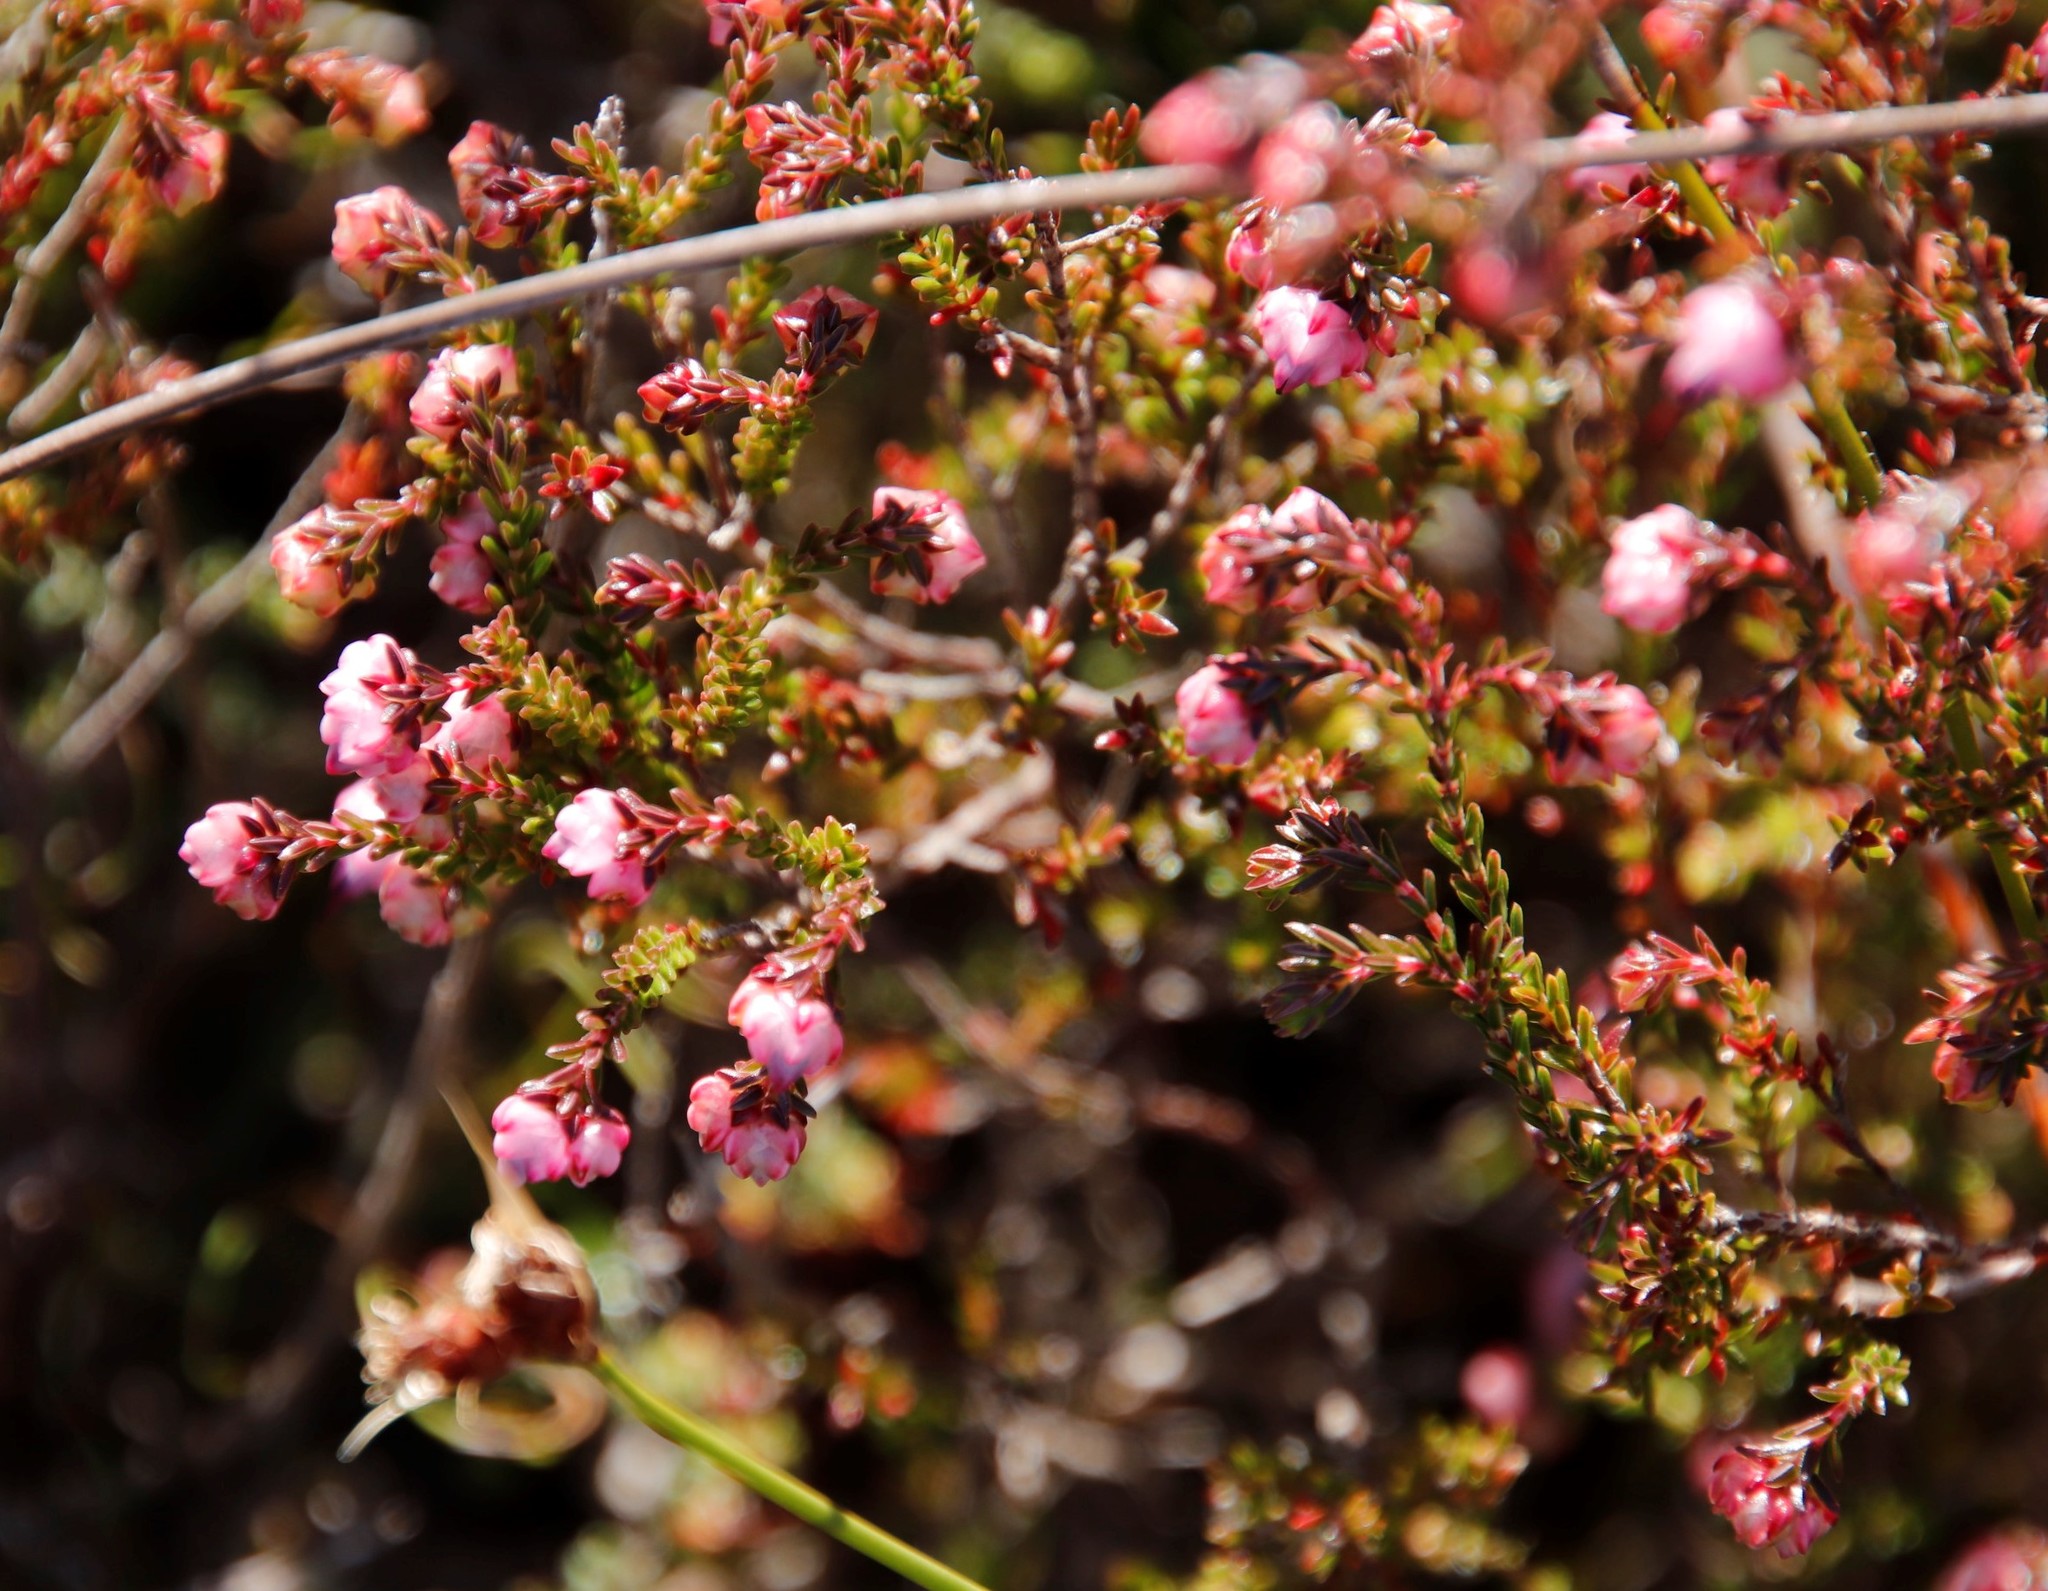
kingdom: Plantae
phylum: Tracheophyta
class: Magnoliopsida
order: Ericales
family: Ericaceae
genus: Erica
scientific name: Erica spumosa
